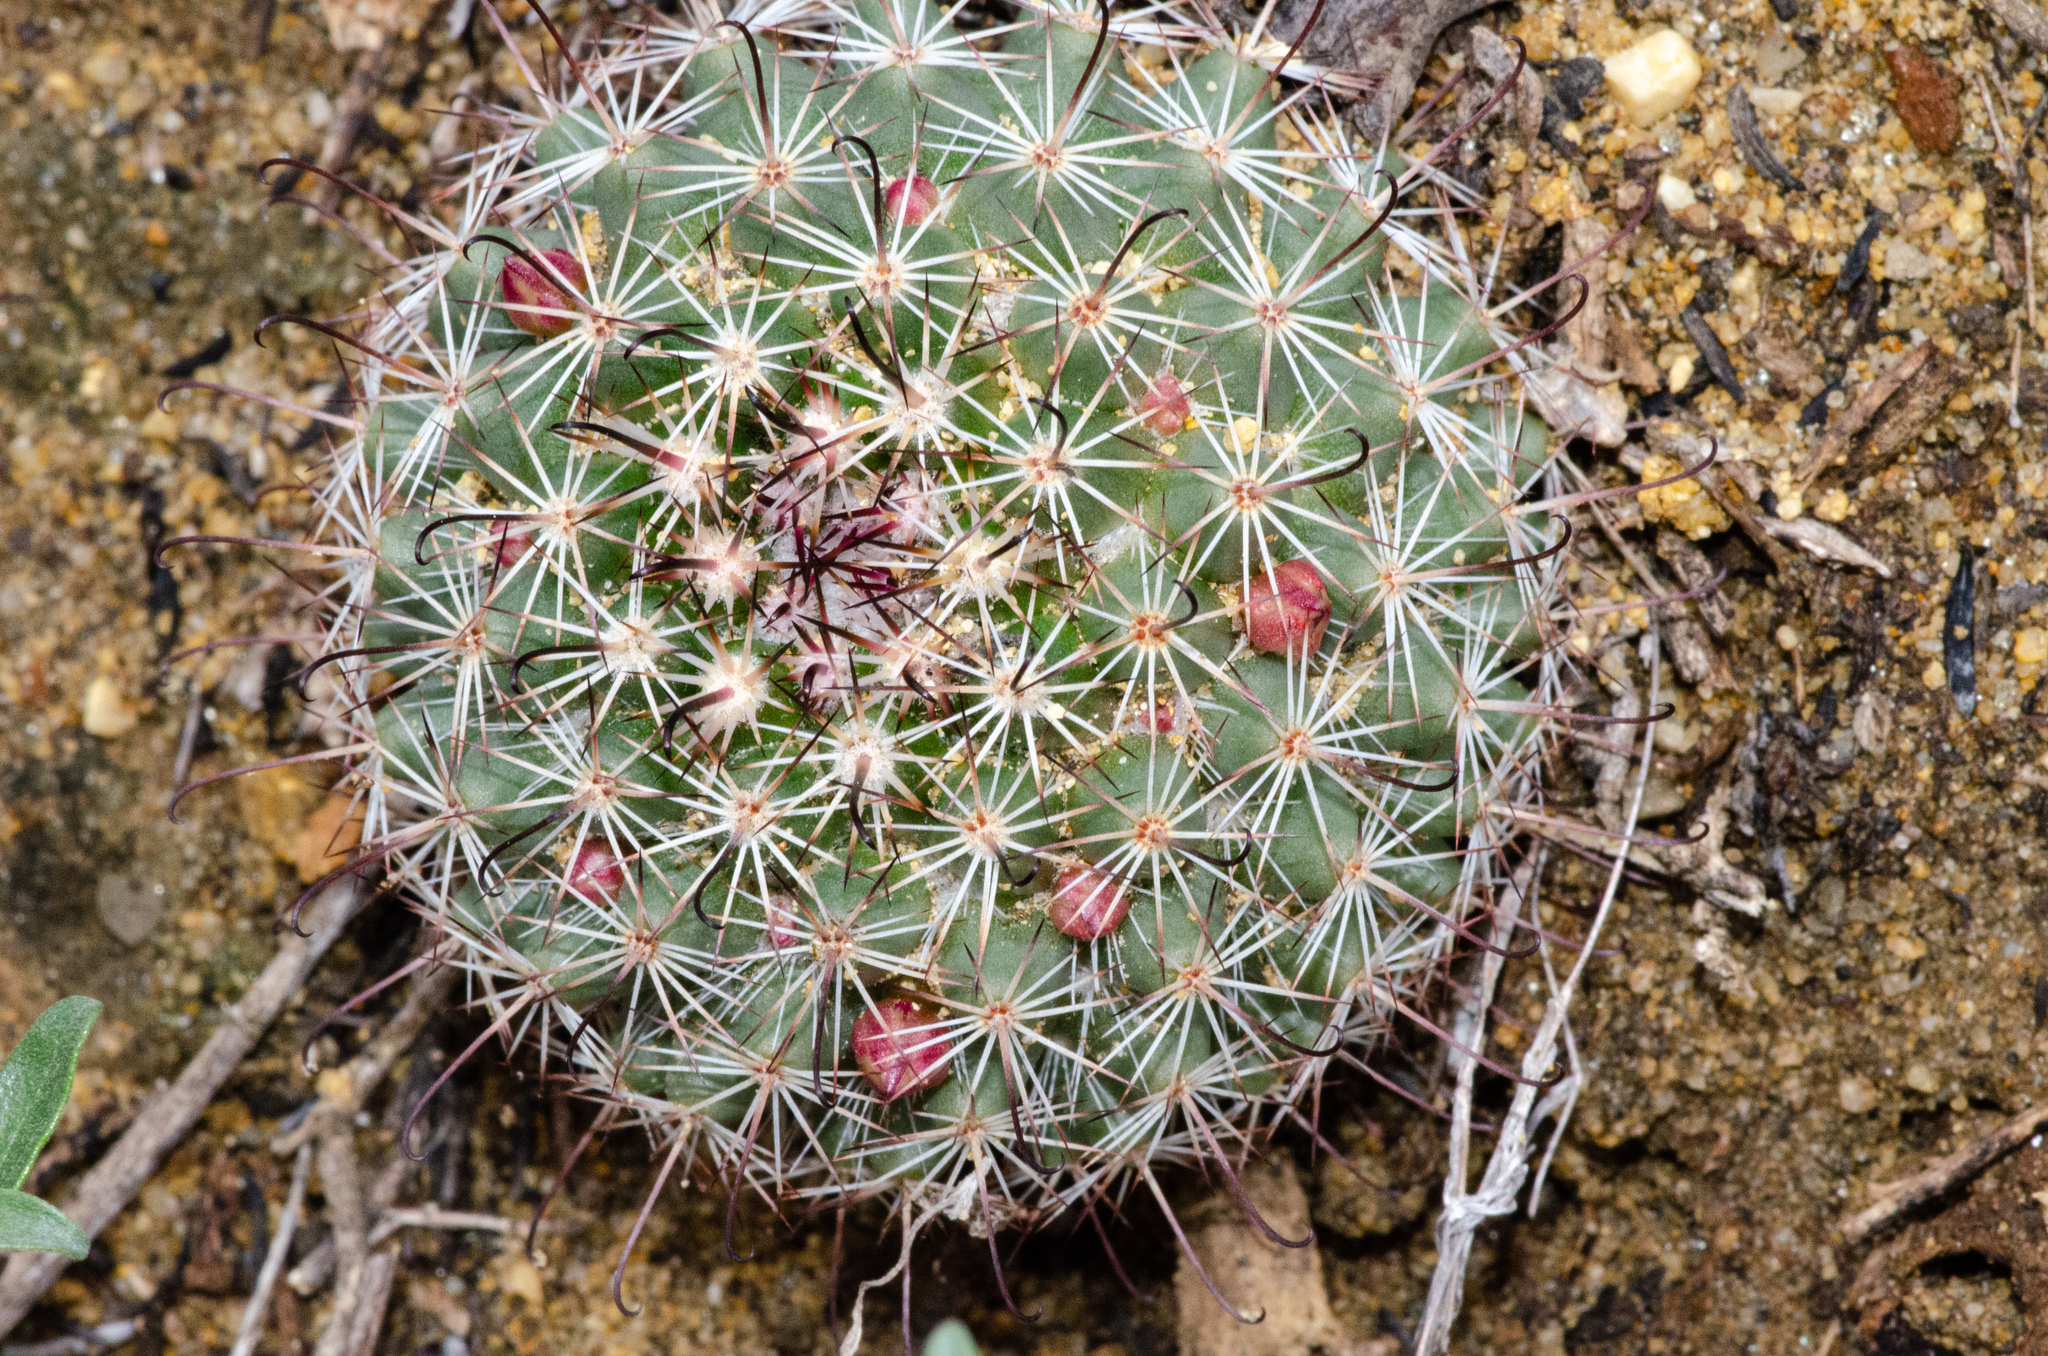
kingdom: Plantae
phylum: Tracheophyta
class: Magnoliopsida
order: Caryophyllales
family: Cactaceae
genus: Cochemiea
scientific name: Cochemiea dioica
